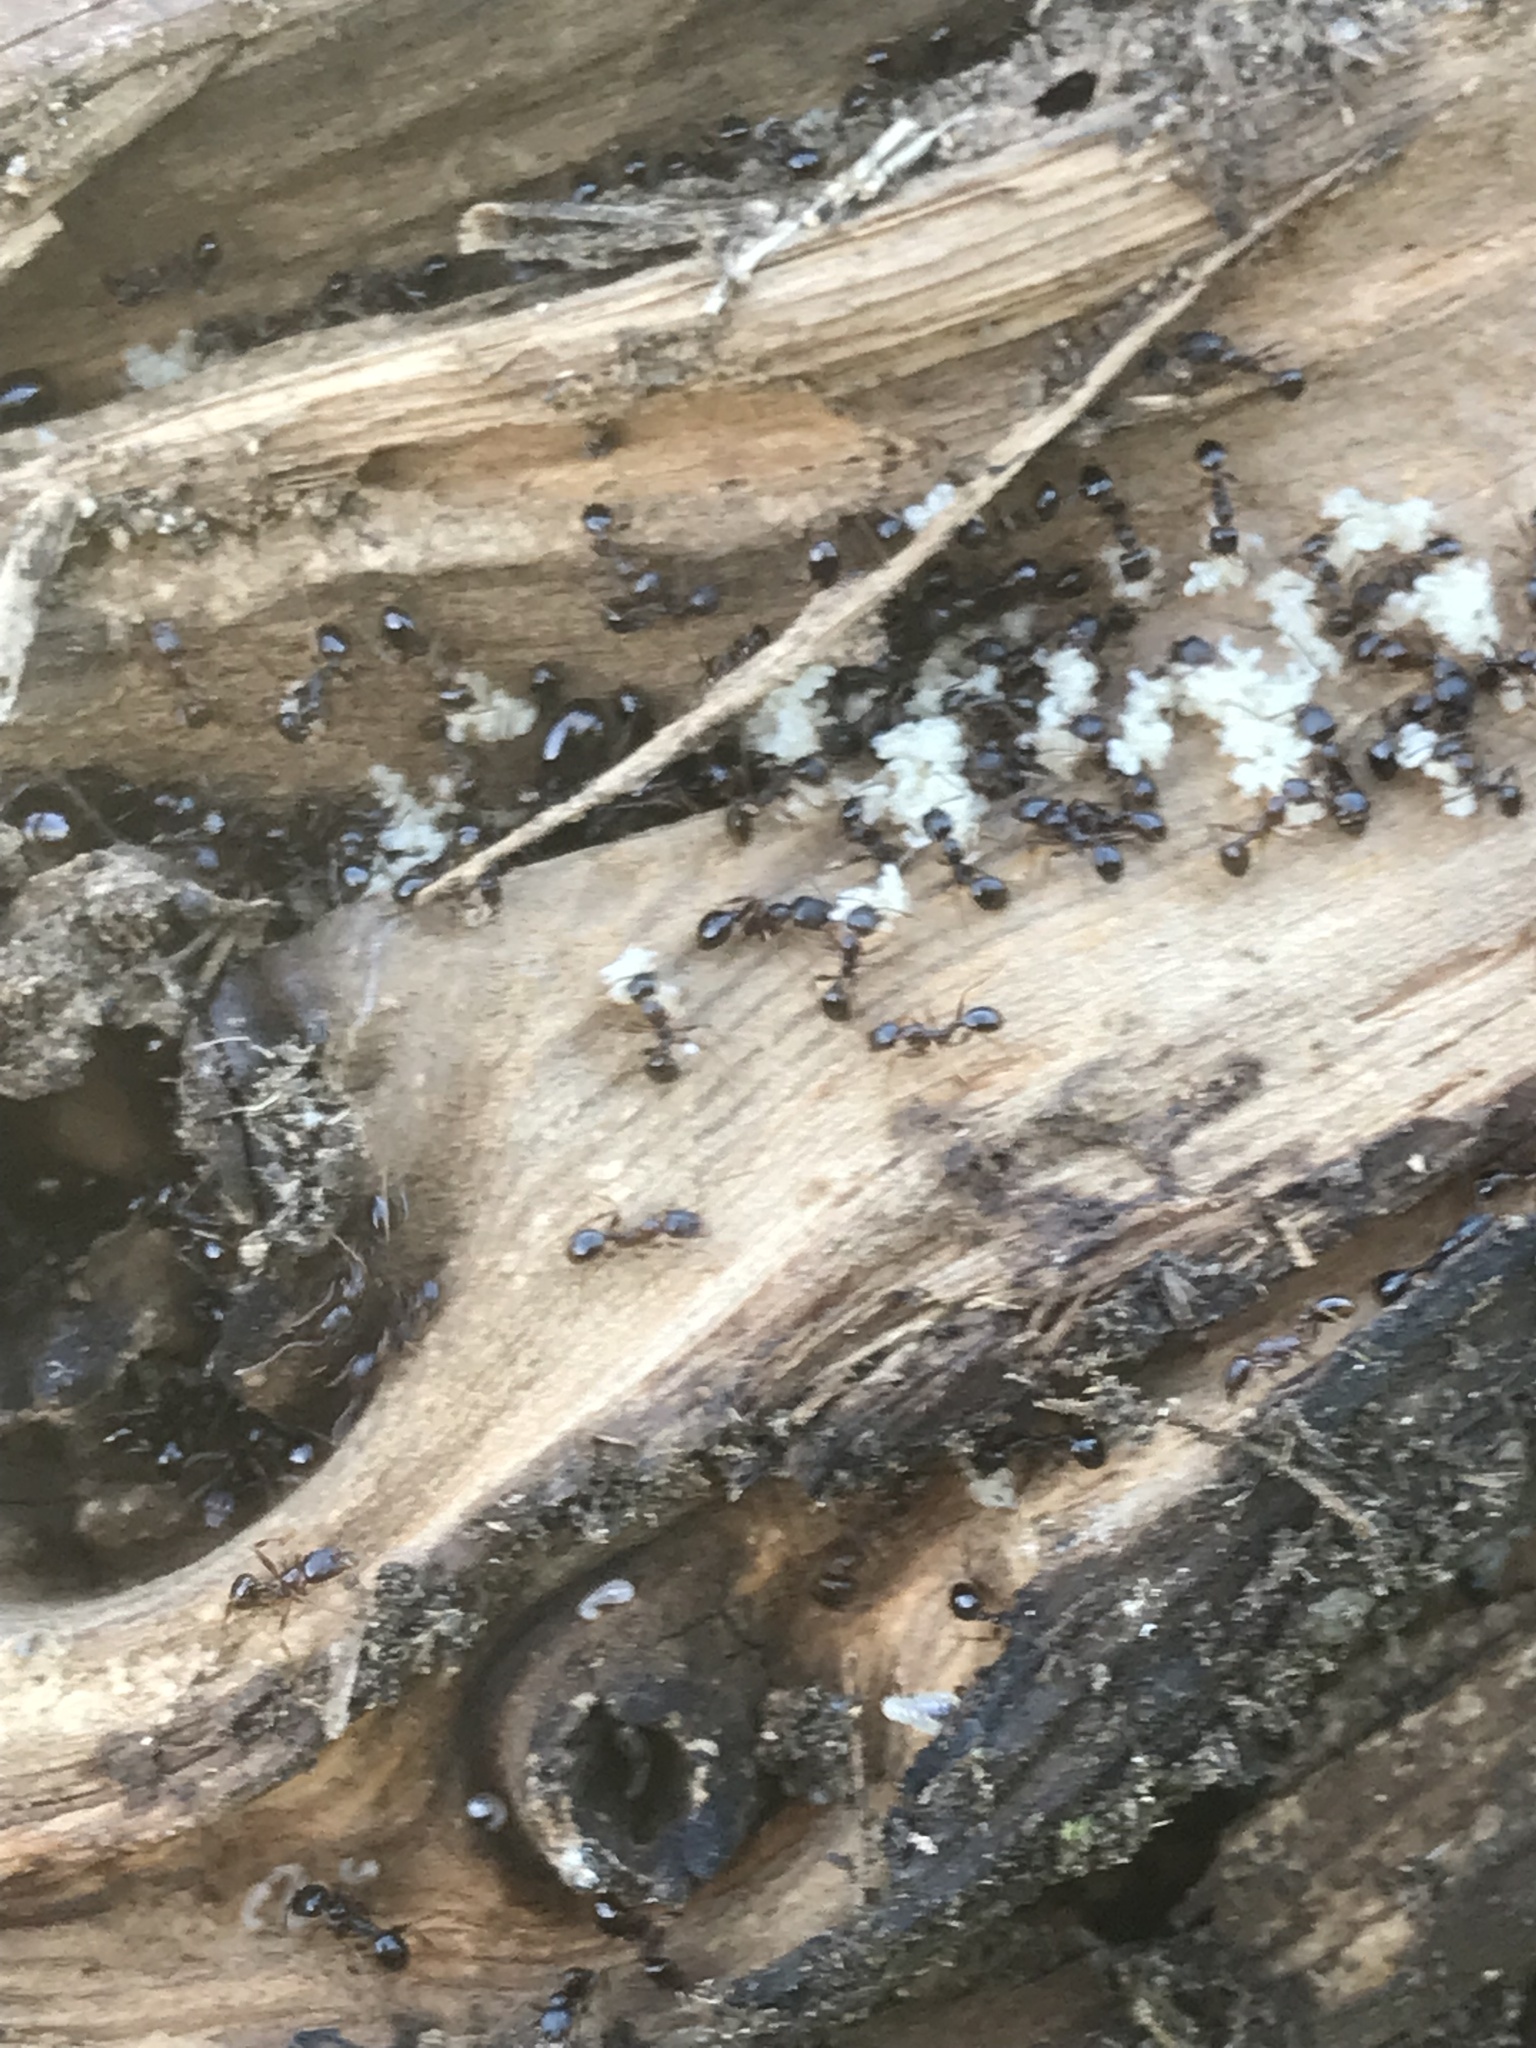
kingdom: Animalia
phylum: Arthropoda
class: Insecta
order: Hymenoptera
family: Formicidae
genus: Aphaenogaster
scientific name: Aphaenogaster occidentalis
